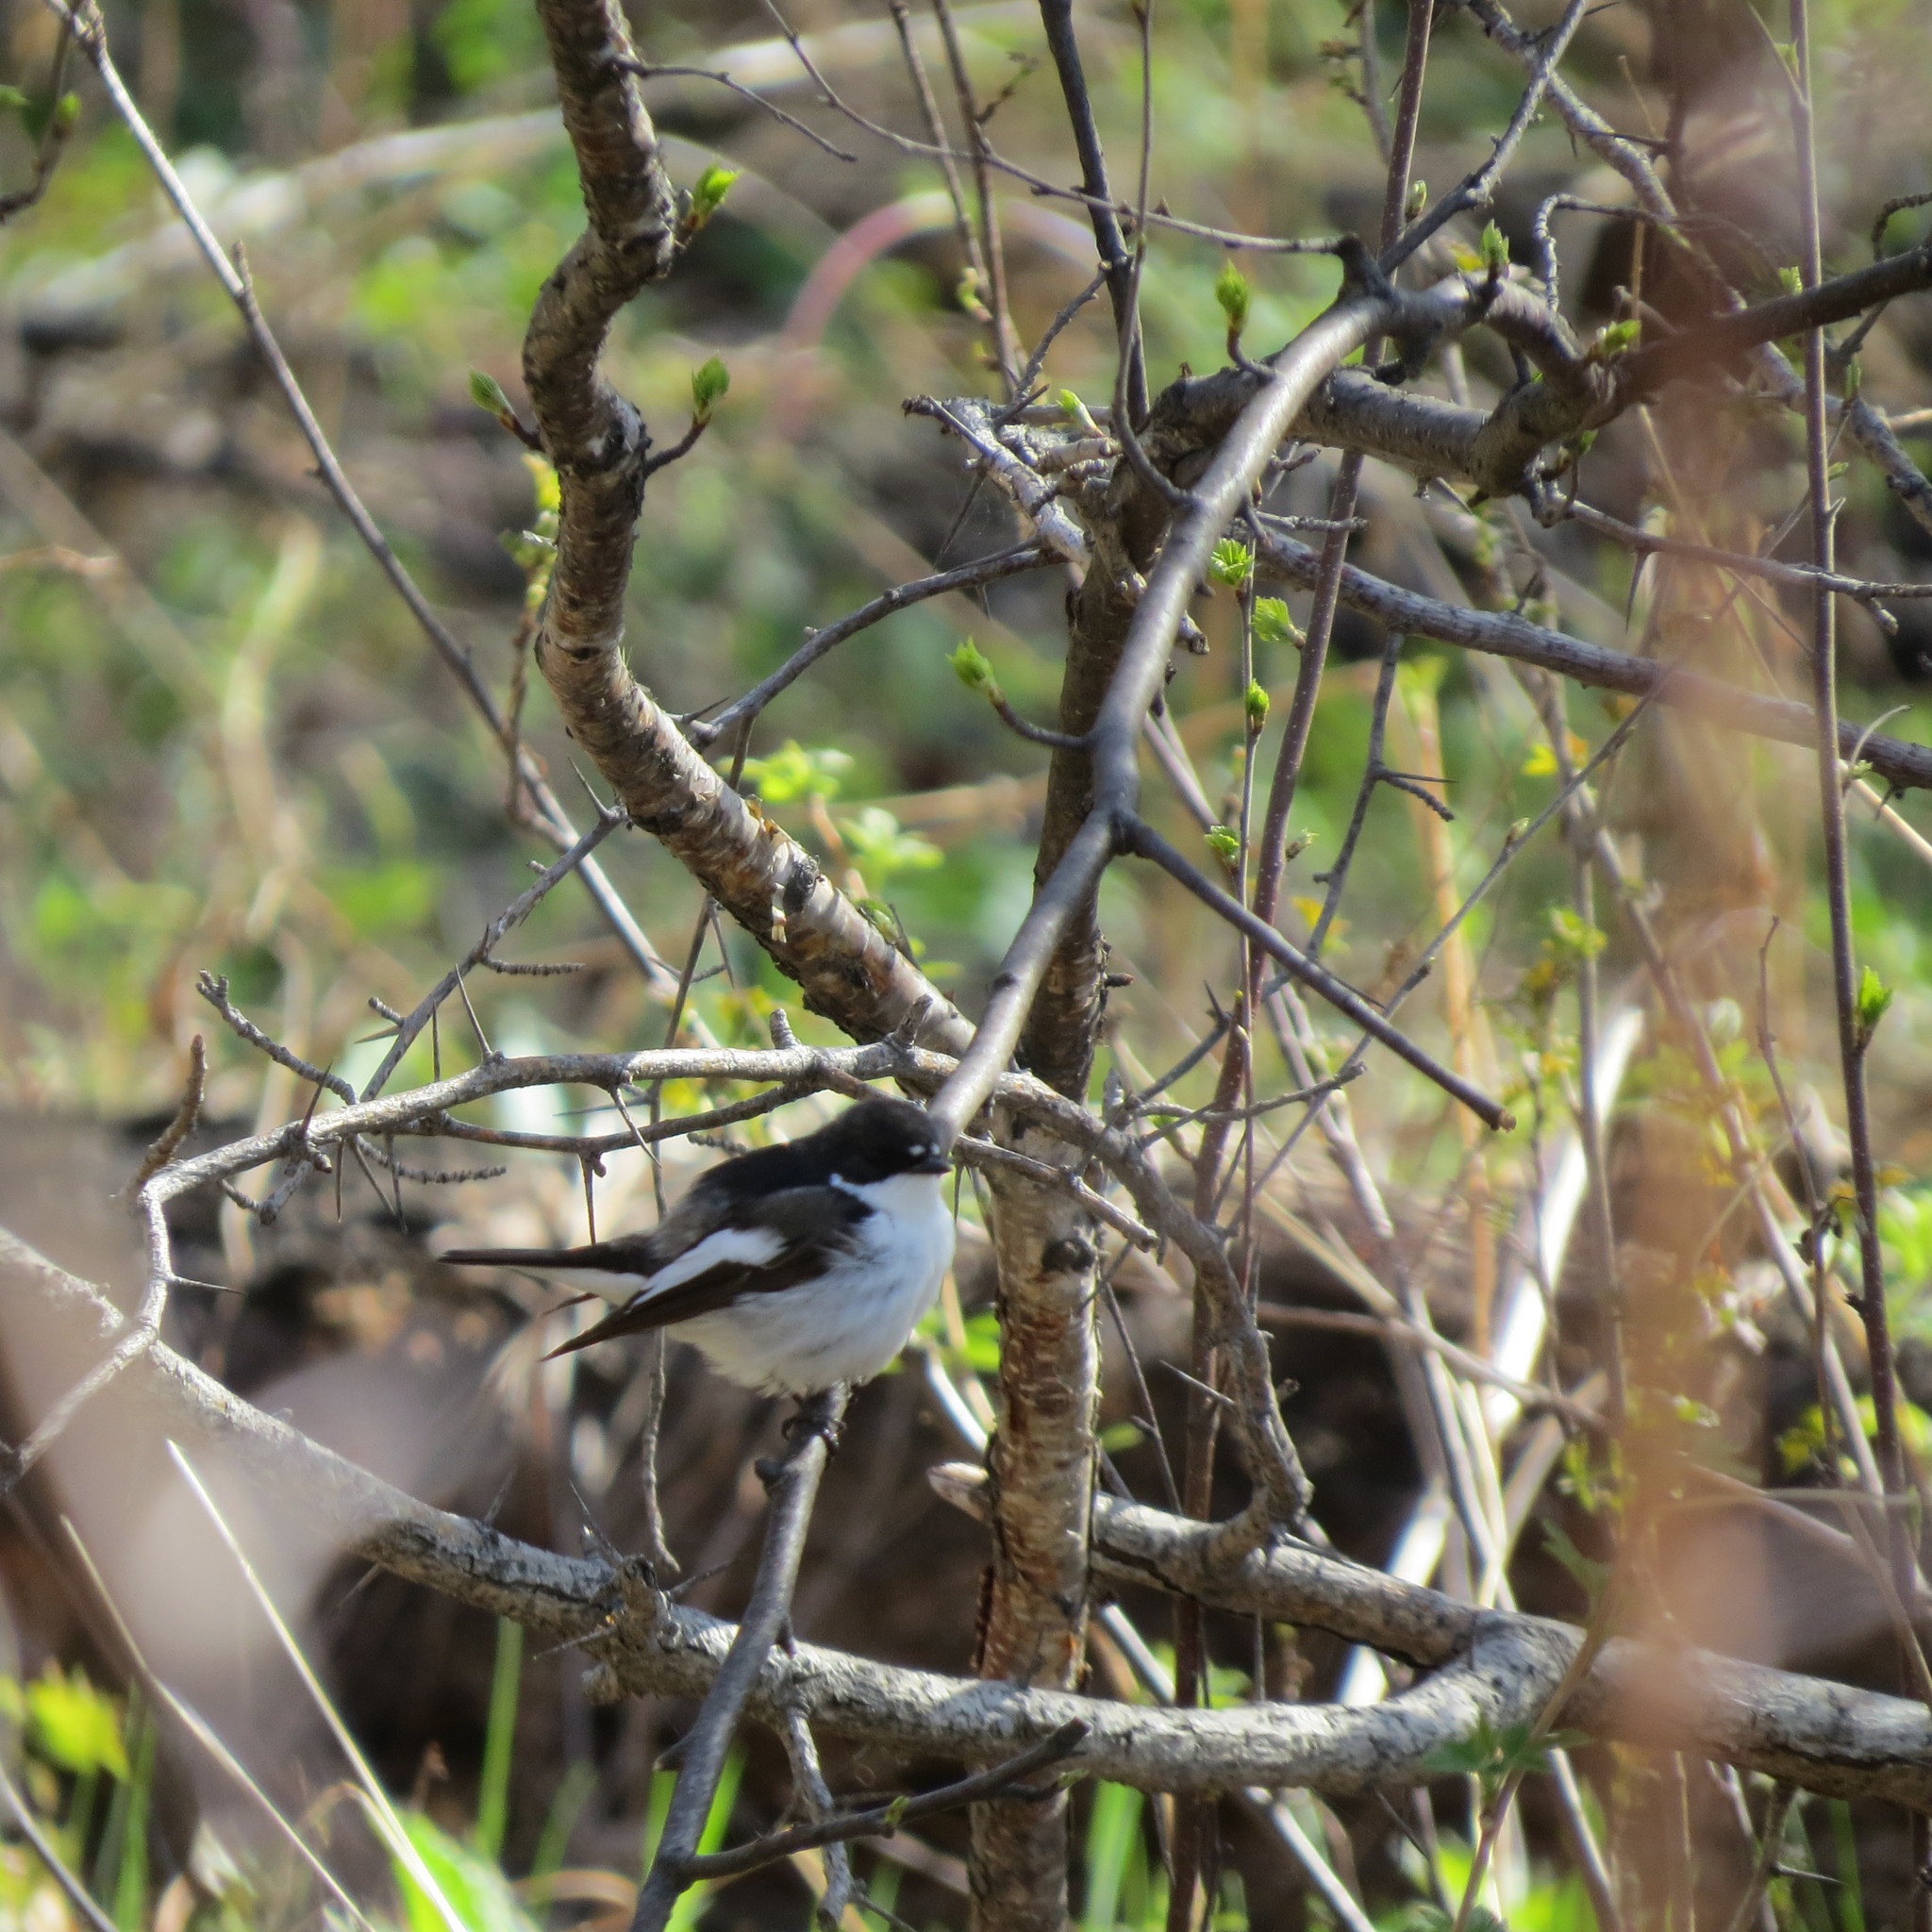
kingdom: Animalia
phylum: Chordata
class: Aves
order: Passeriformes
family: Muscicapidae
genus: Ficedula
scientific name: Ficedula hypoleuca
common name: European pied flycatcher
